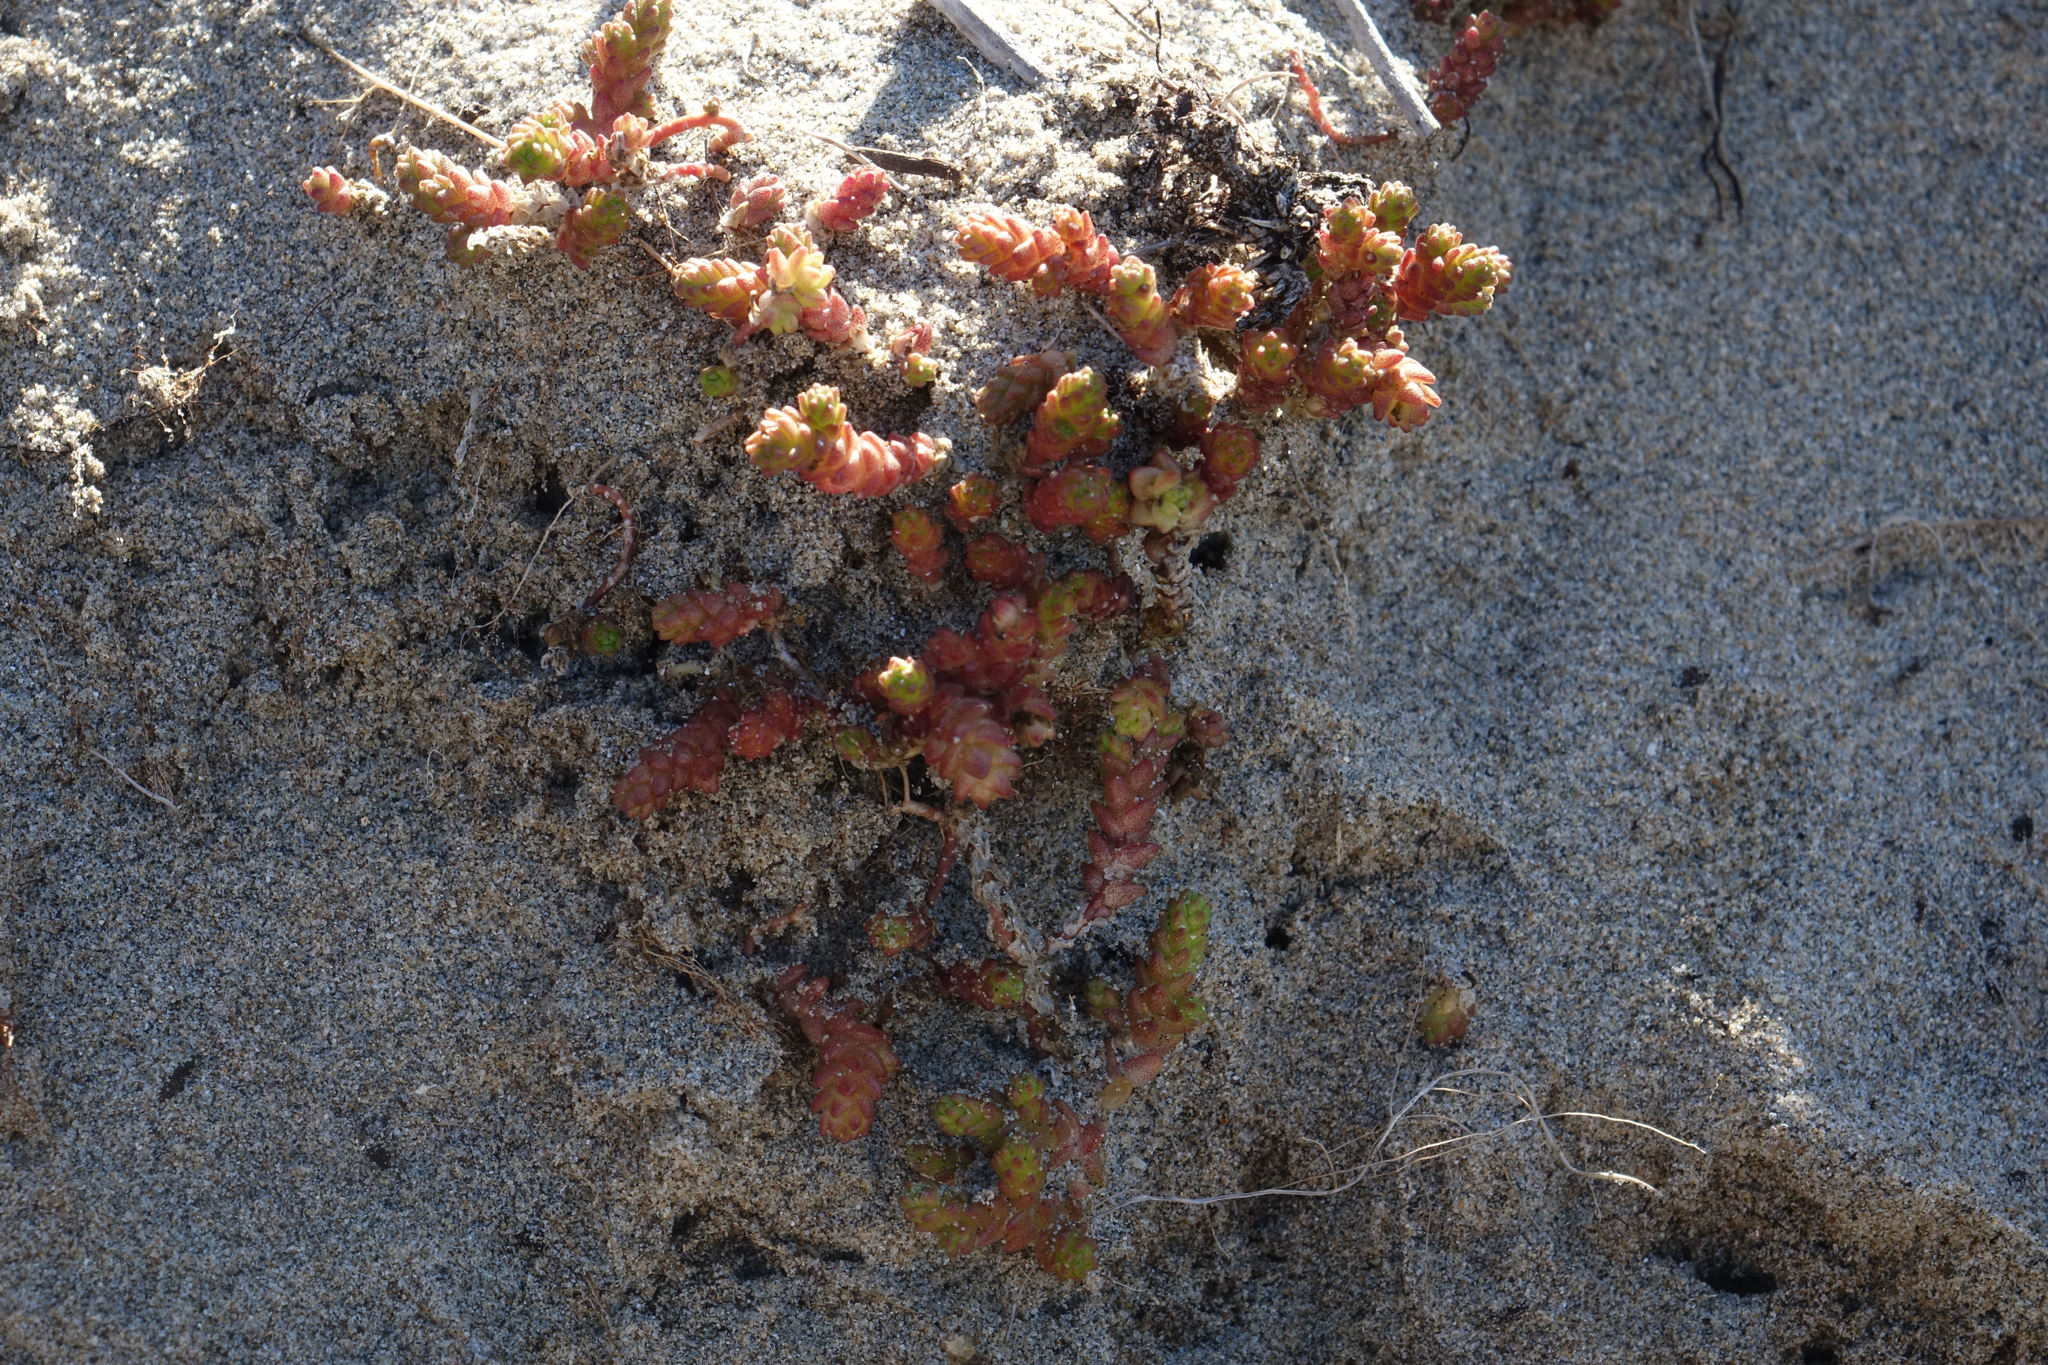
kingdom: Plantae
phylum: Tracheophyta
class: Magnoliopsida
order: Saxifragales
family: Crassulaceae
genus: Sedum
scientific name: Sedum acre
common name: Biting stonecrop
